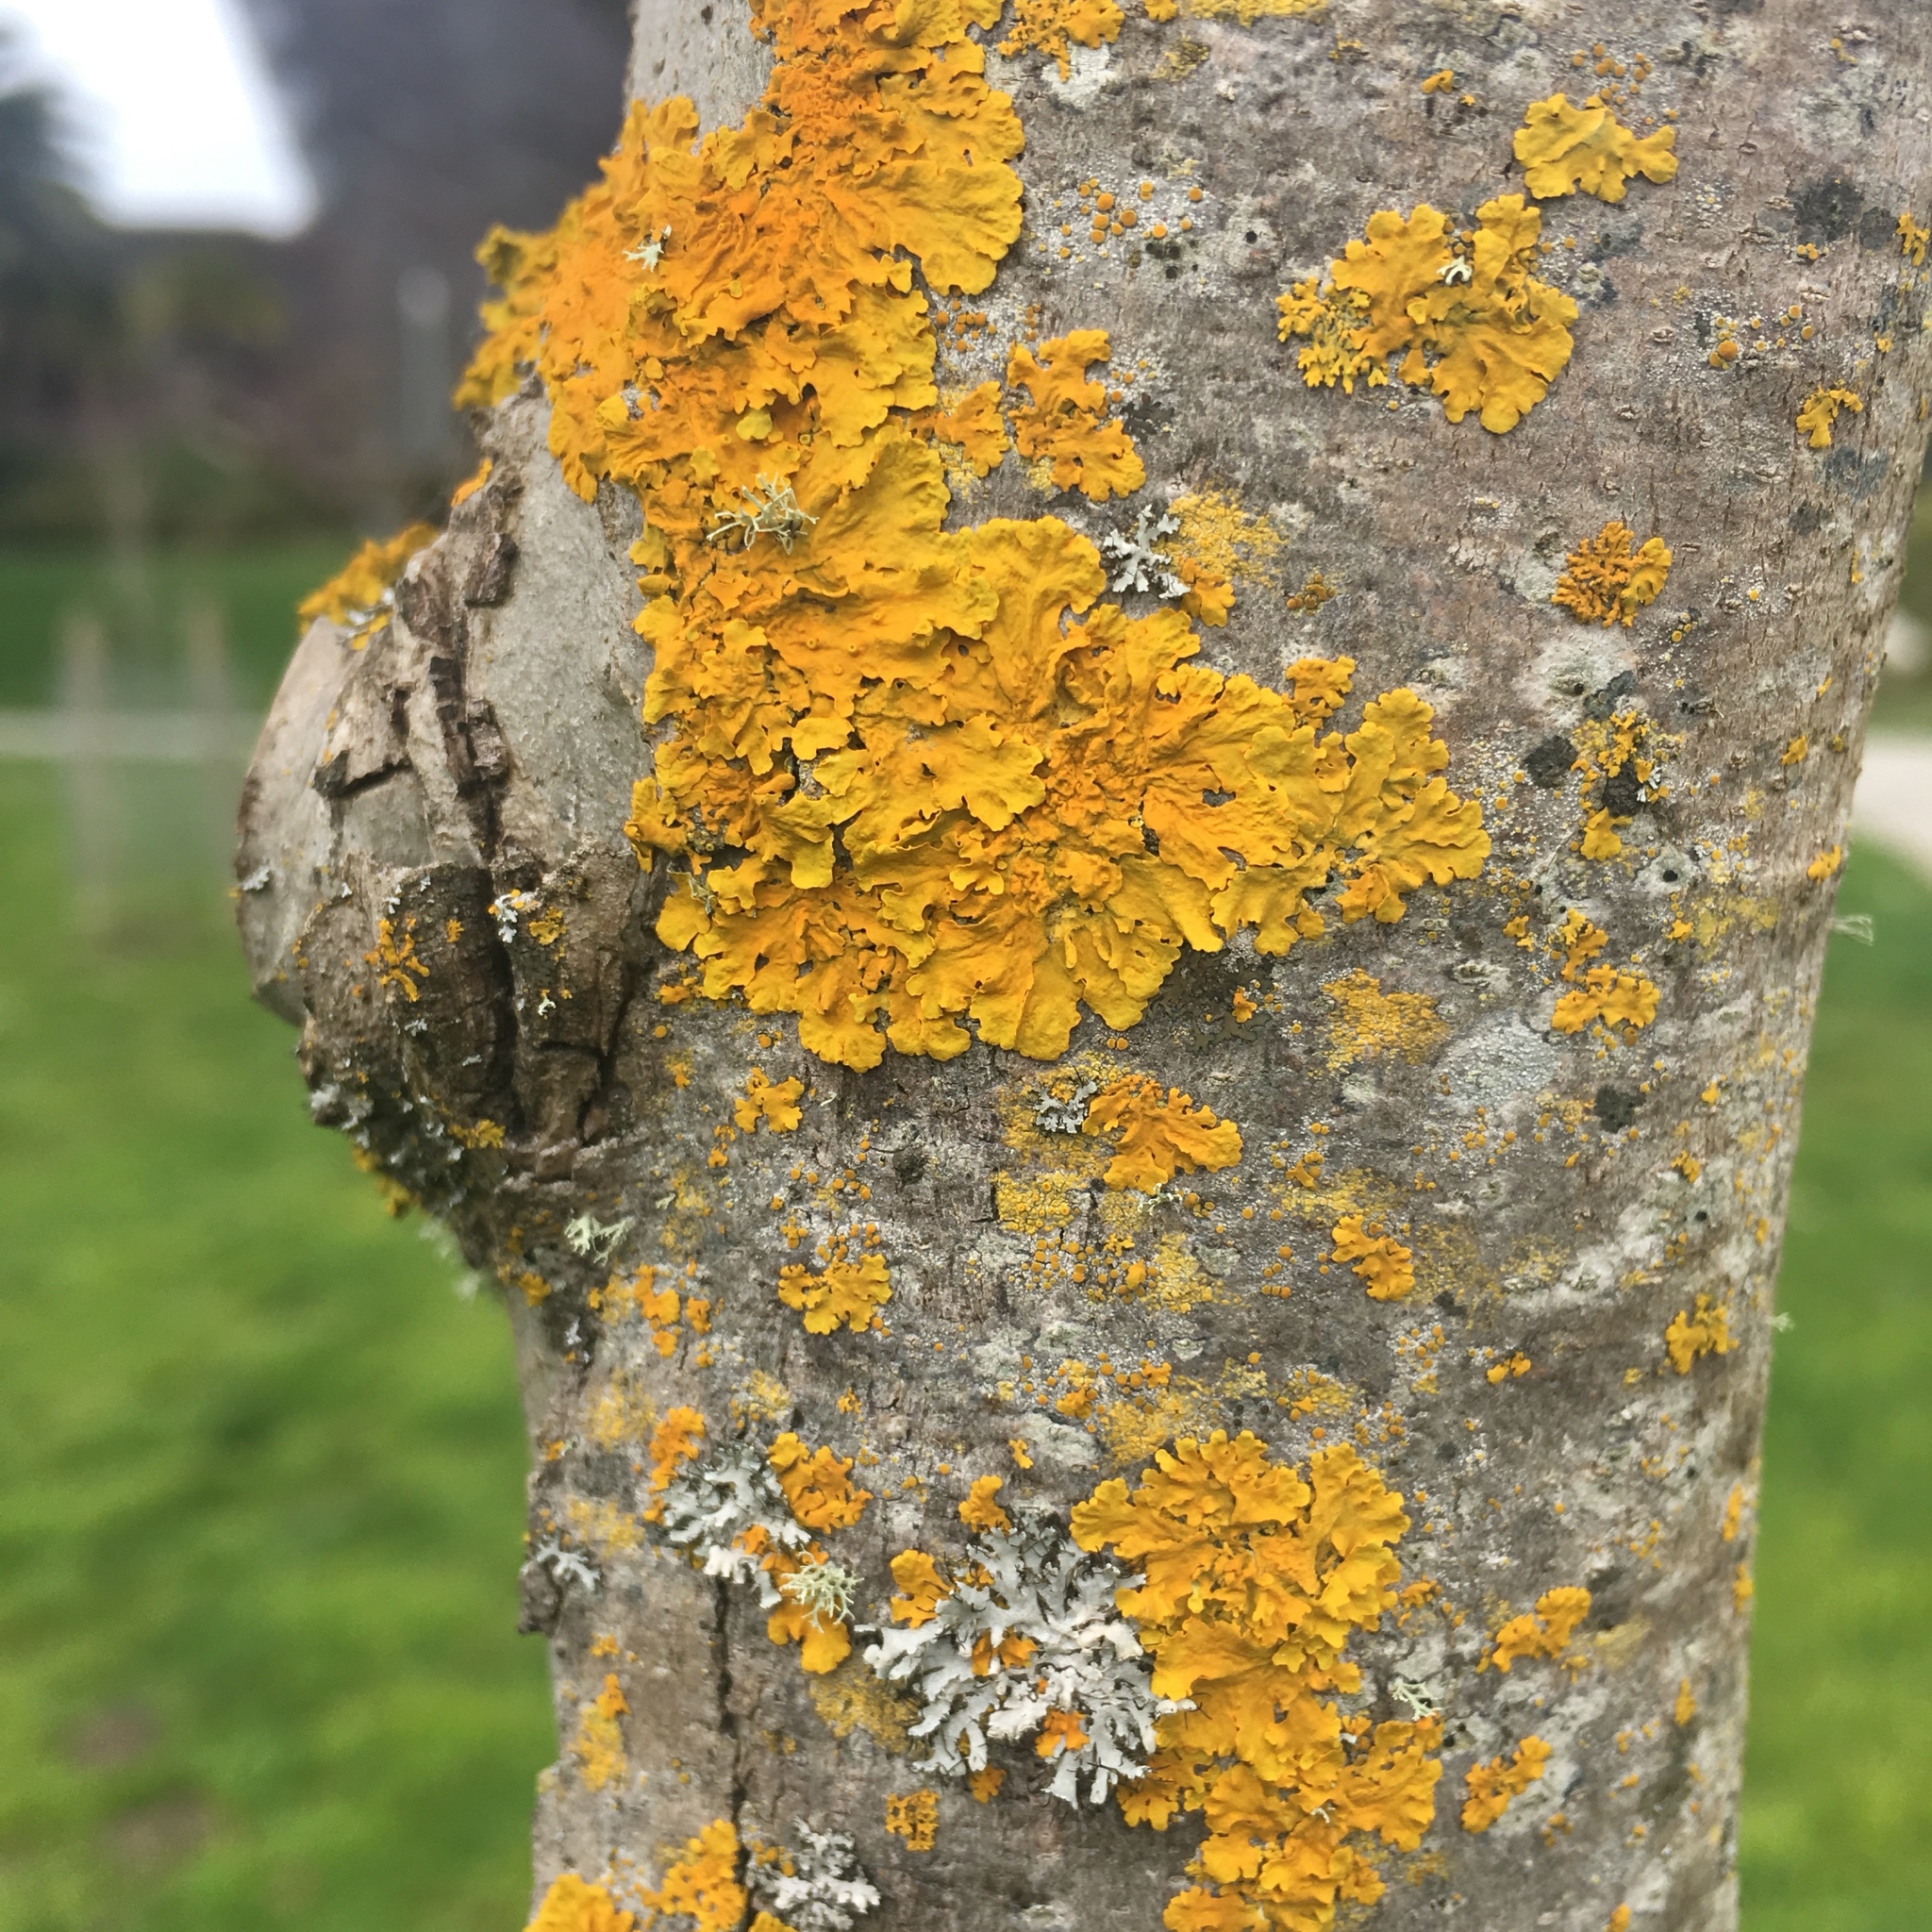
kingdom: Fungi
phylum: Ascomycota
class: Lecanoromycetes
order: Teloschistales
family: Teloschistaceae
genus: Xanthoria
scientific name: Xanthoria parietina
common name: Common orange lichen
